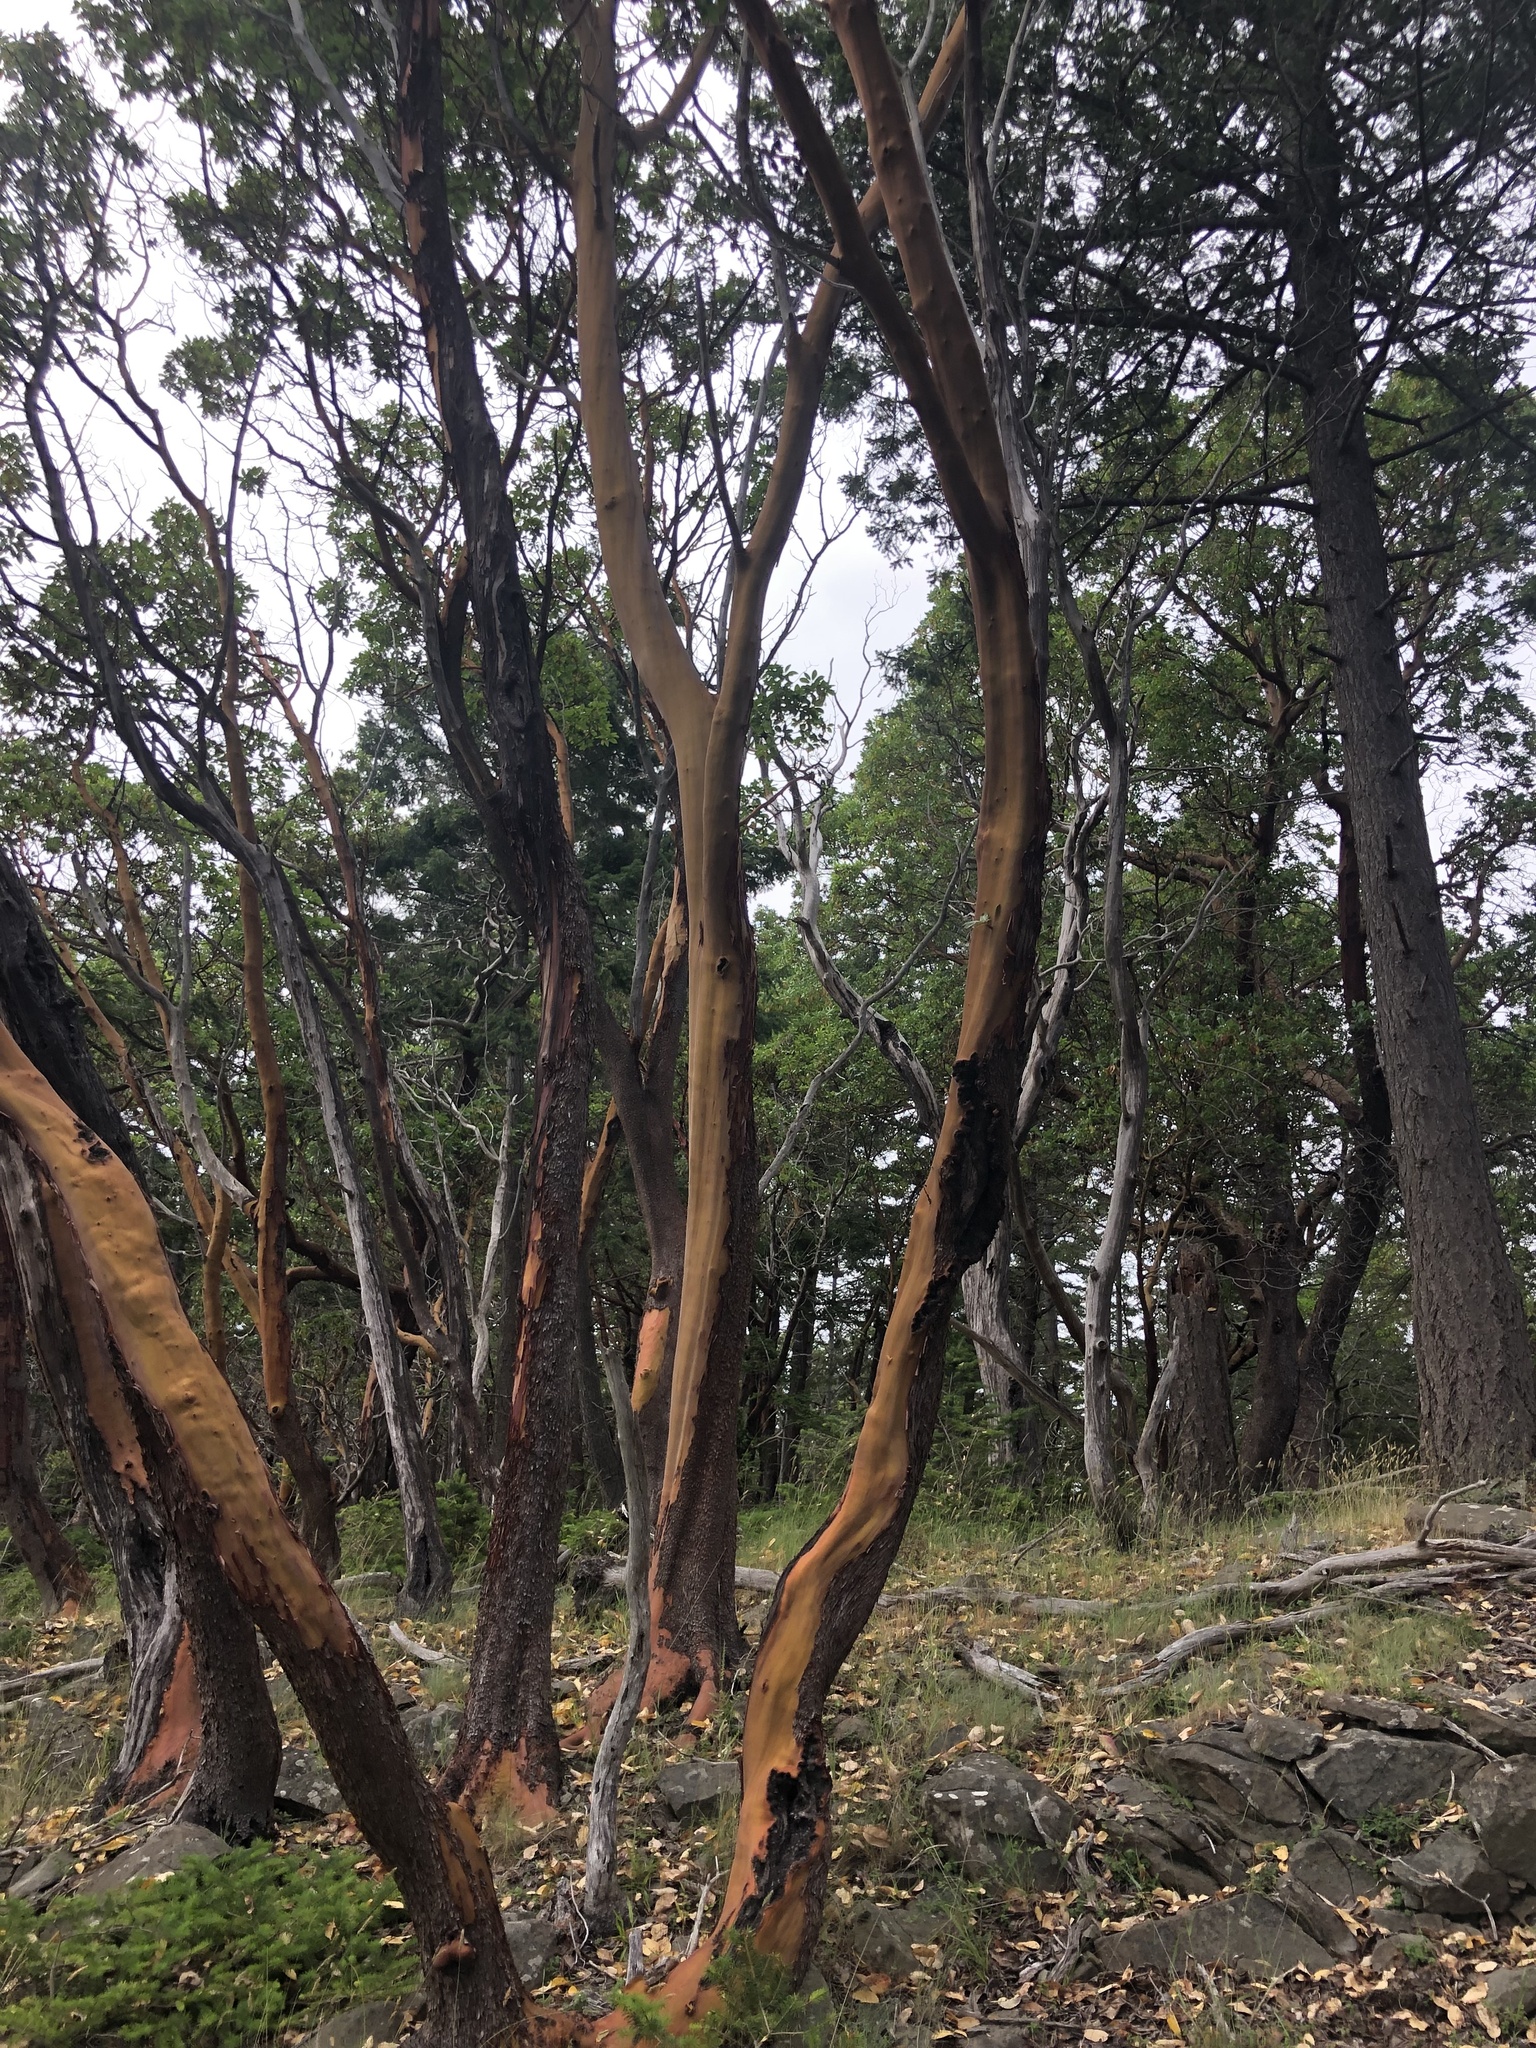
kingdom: Plantae
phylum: Tracheophyta
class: Magnoliopsida
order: Ericales
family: Ericaceae
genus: Arbutus
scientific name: Arbutus menziesii
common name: Pacific madrone
